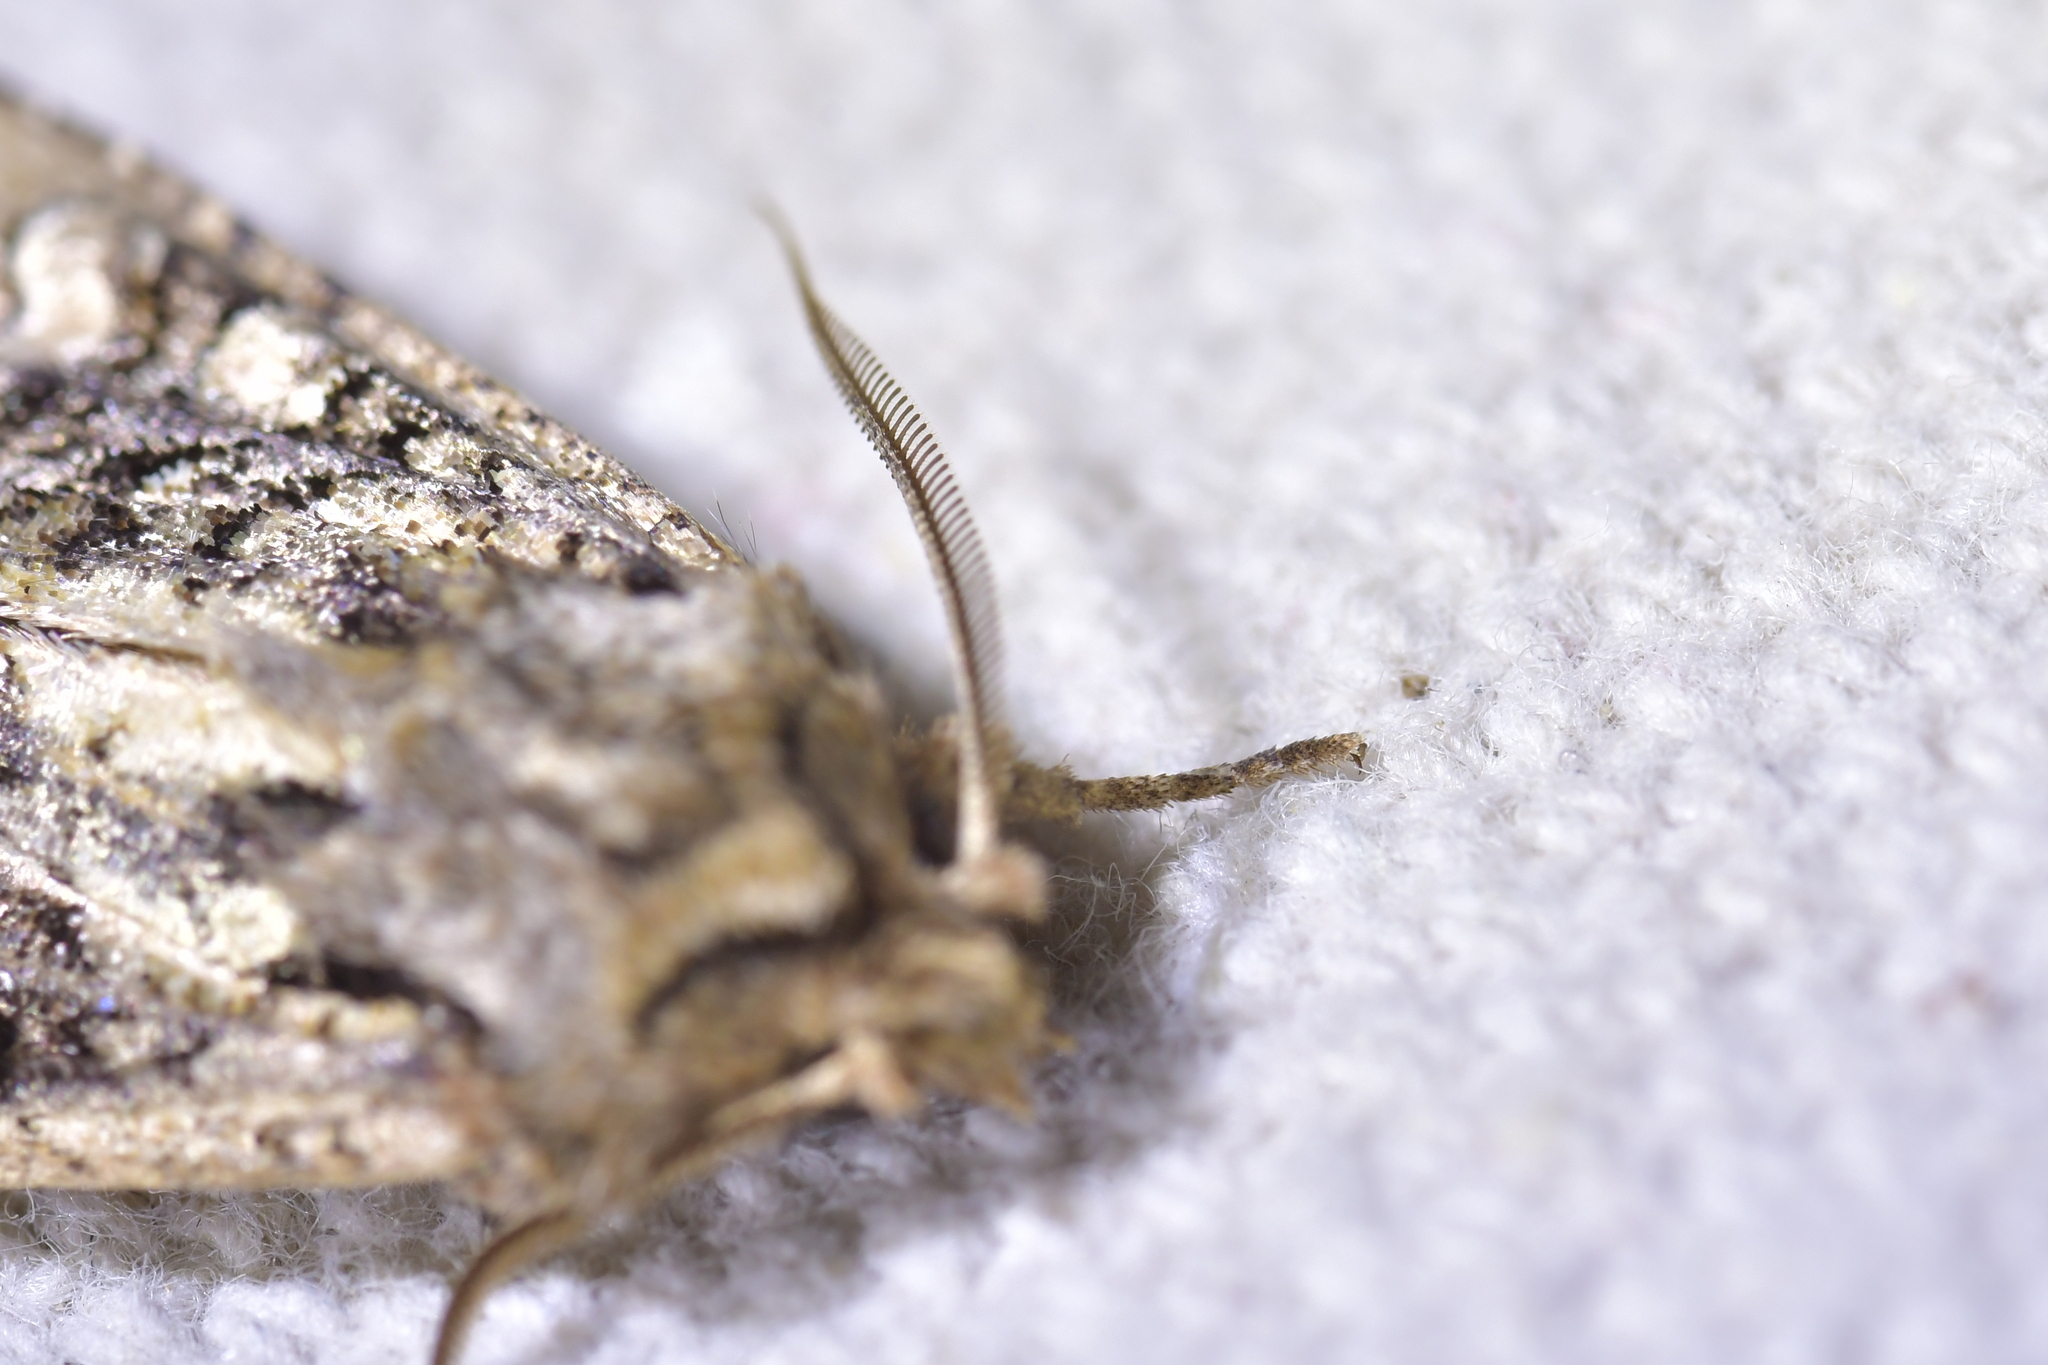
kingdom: Animalia
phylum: Arthropoda
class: Insecta
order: Lepidoptera
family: Noctuidae
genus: Ichneutica
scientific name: Ichneutica skelloni
